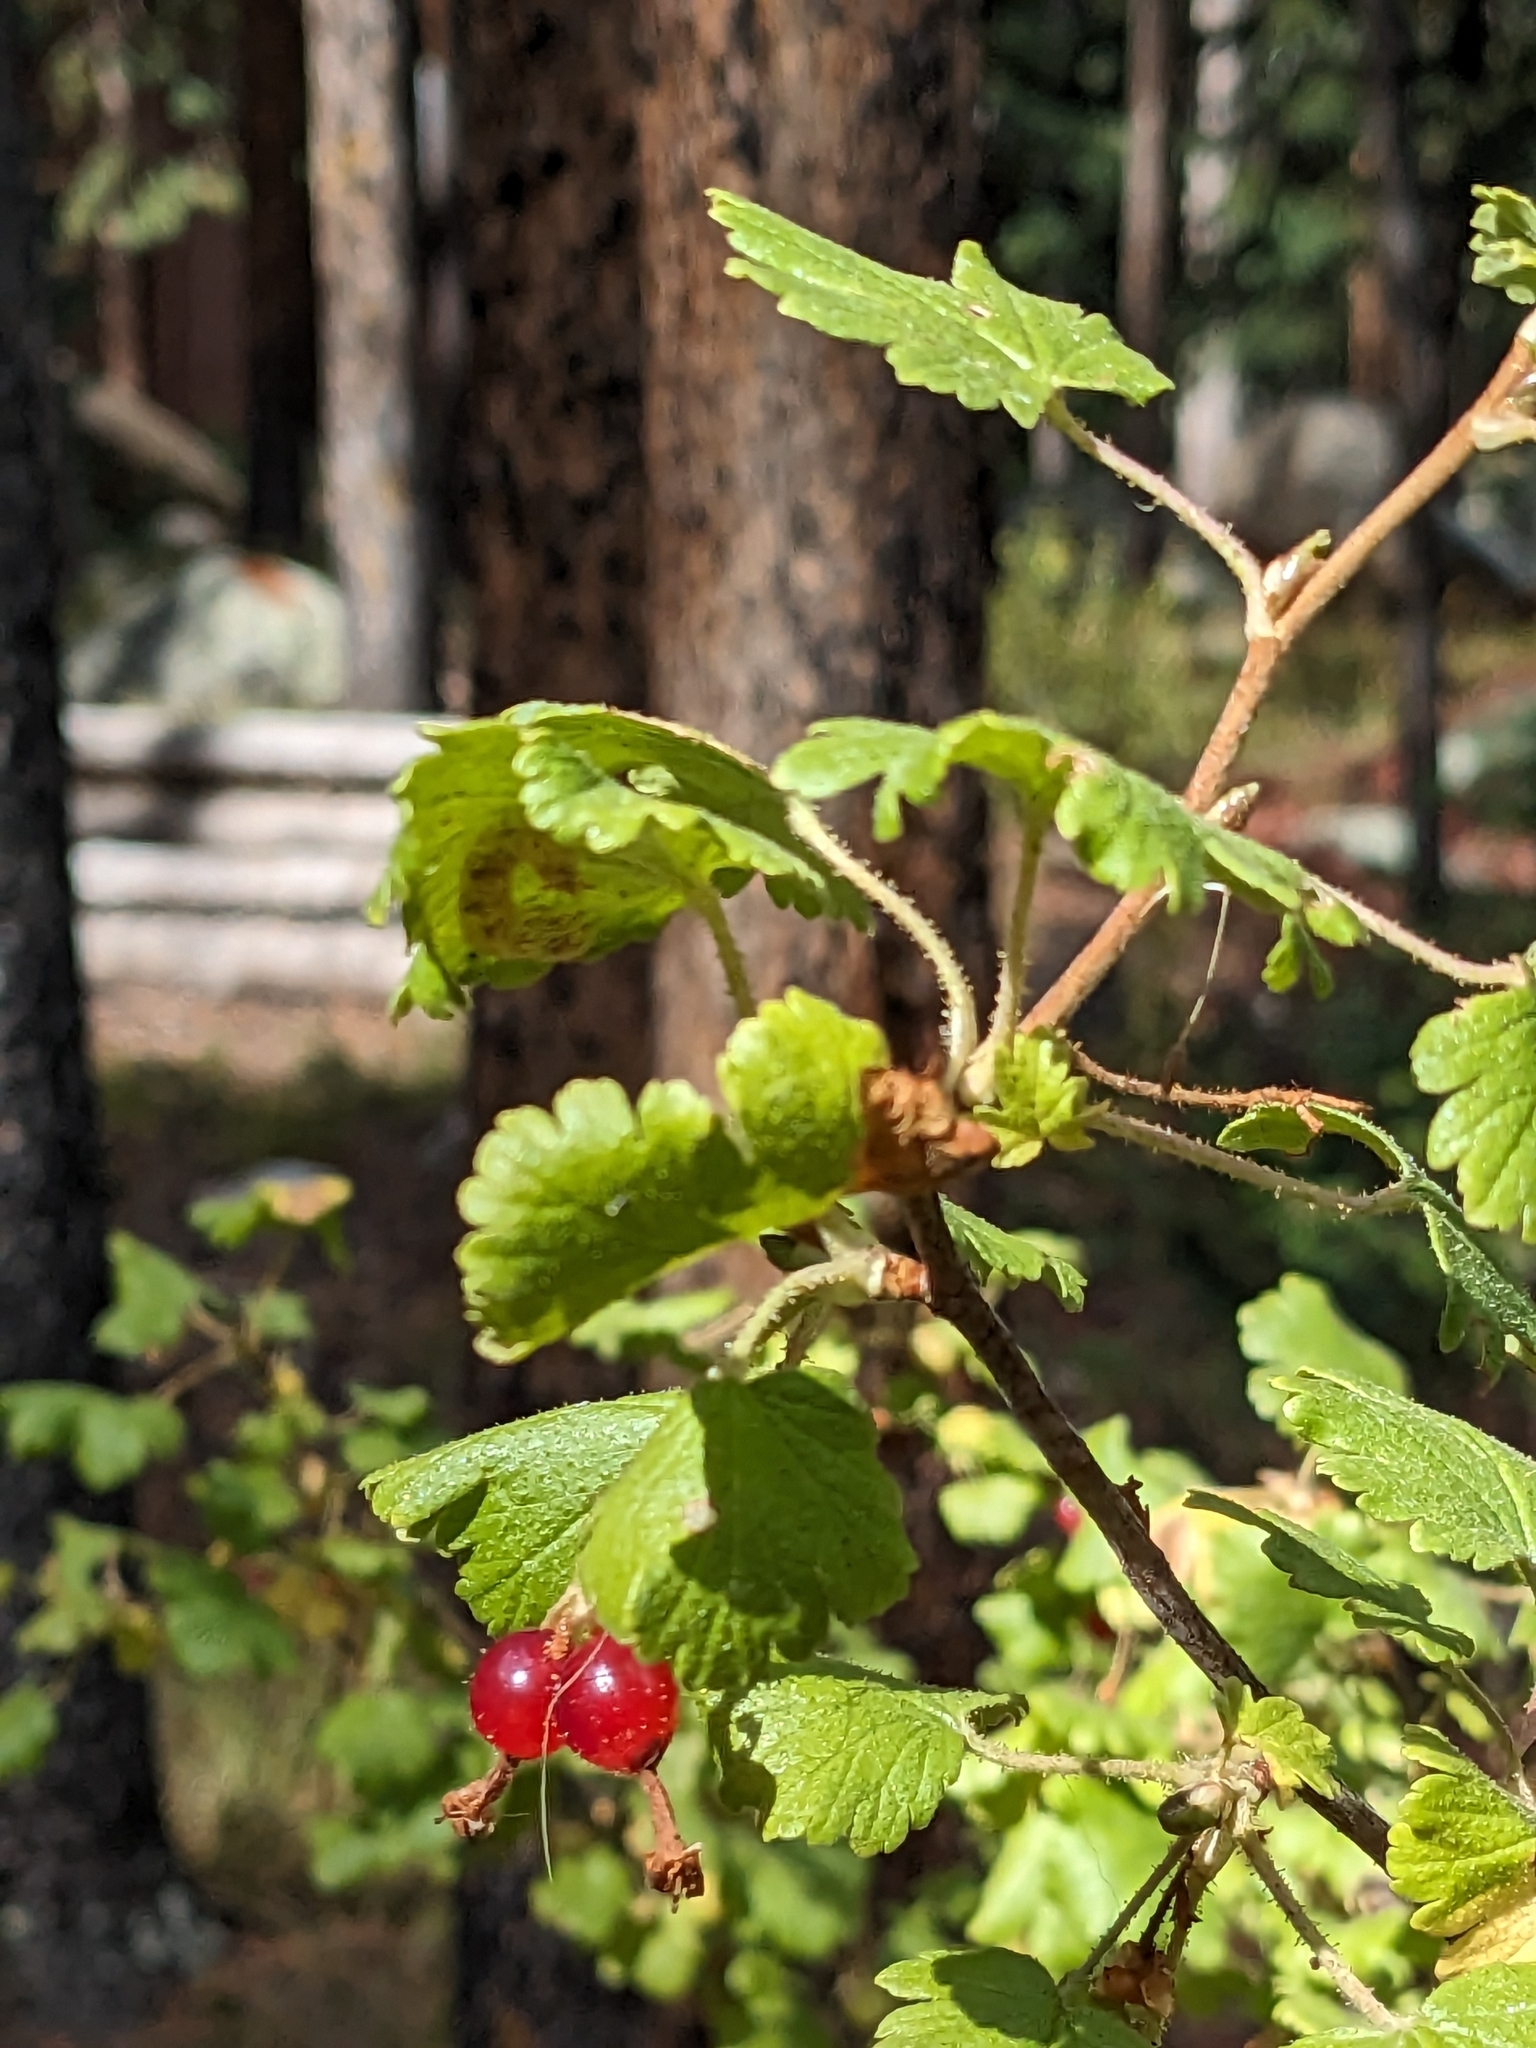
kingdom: Plantae
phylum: Tracheophyta
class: Magnoliopsida
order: Saxifragales
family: Grossulariaceae
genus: Ribes
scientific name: Ribes cereum
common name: Wax currant
